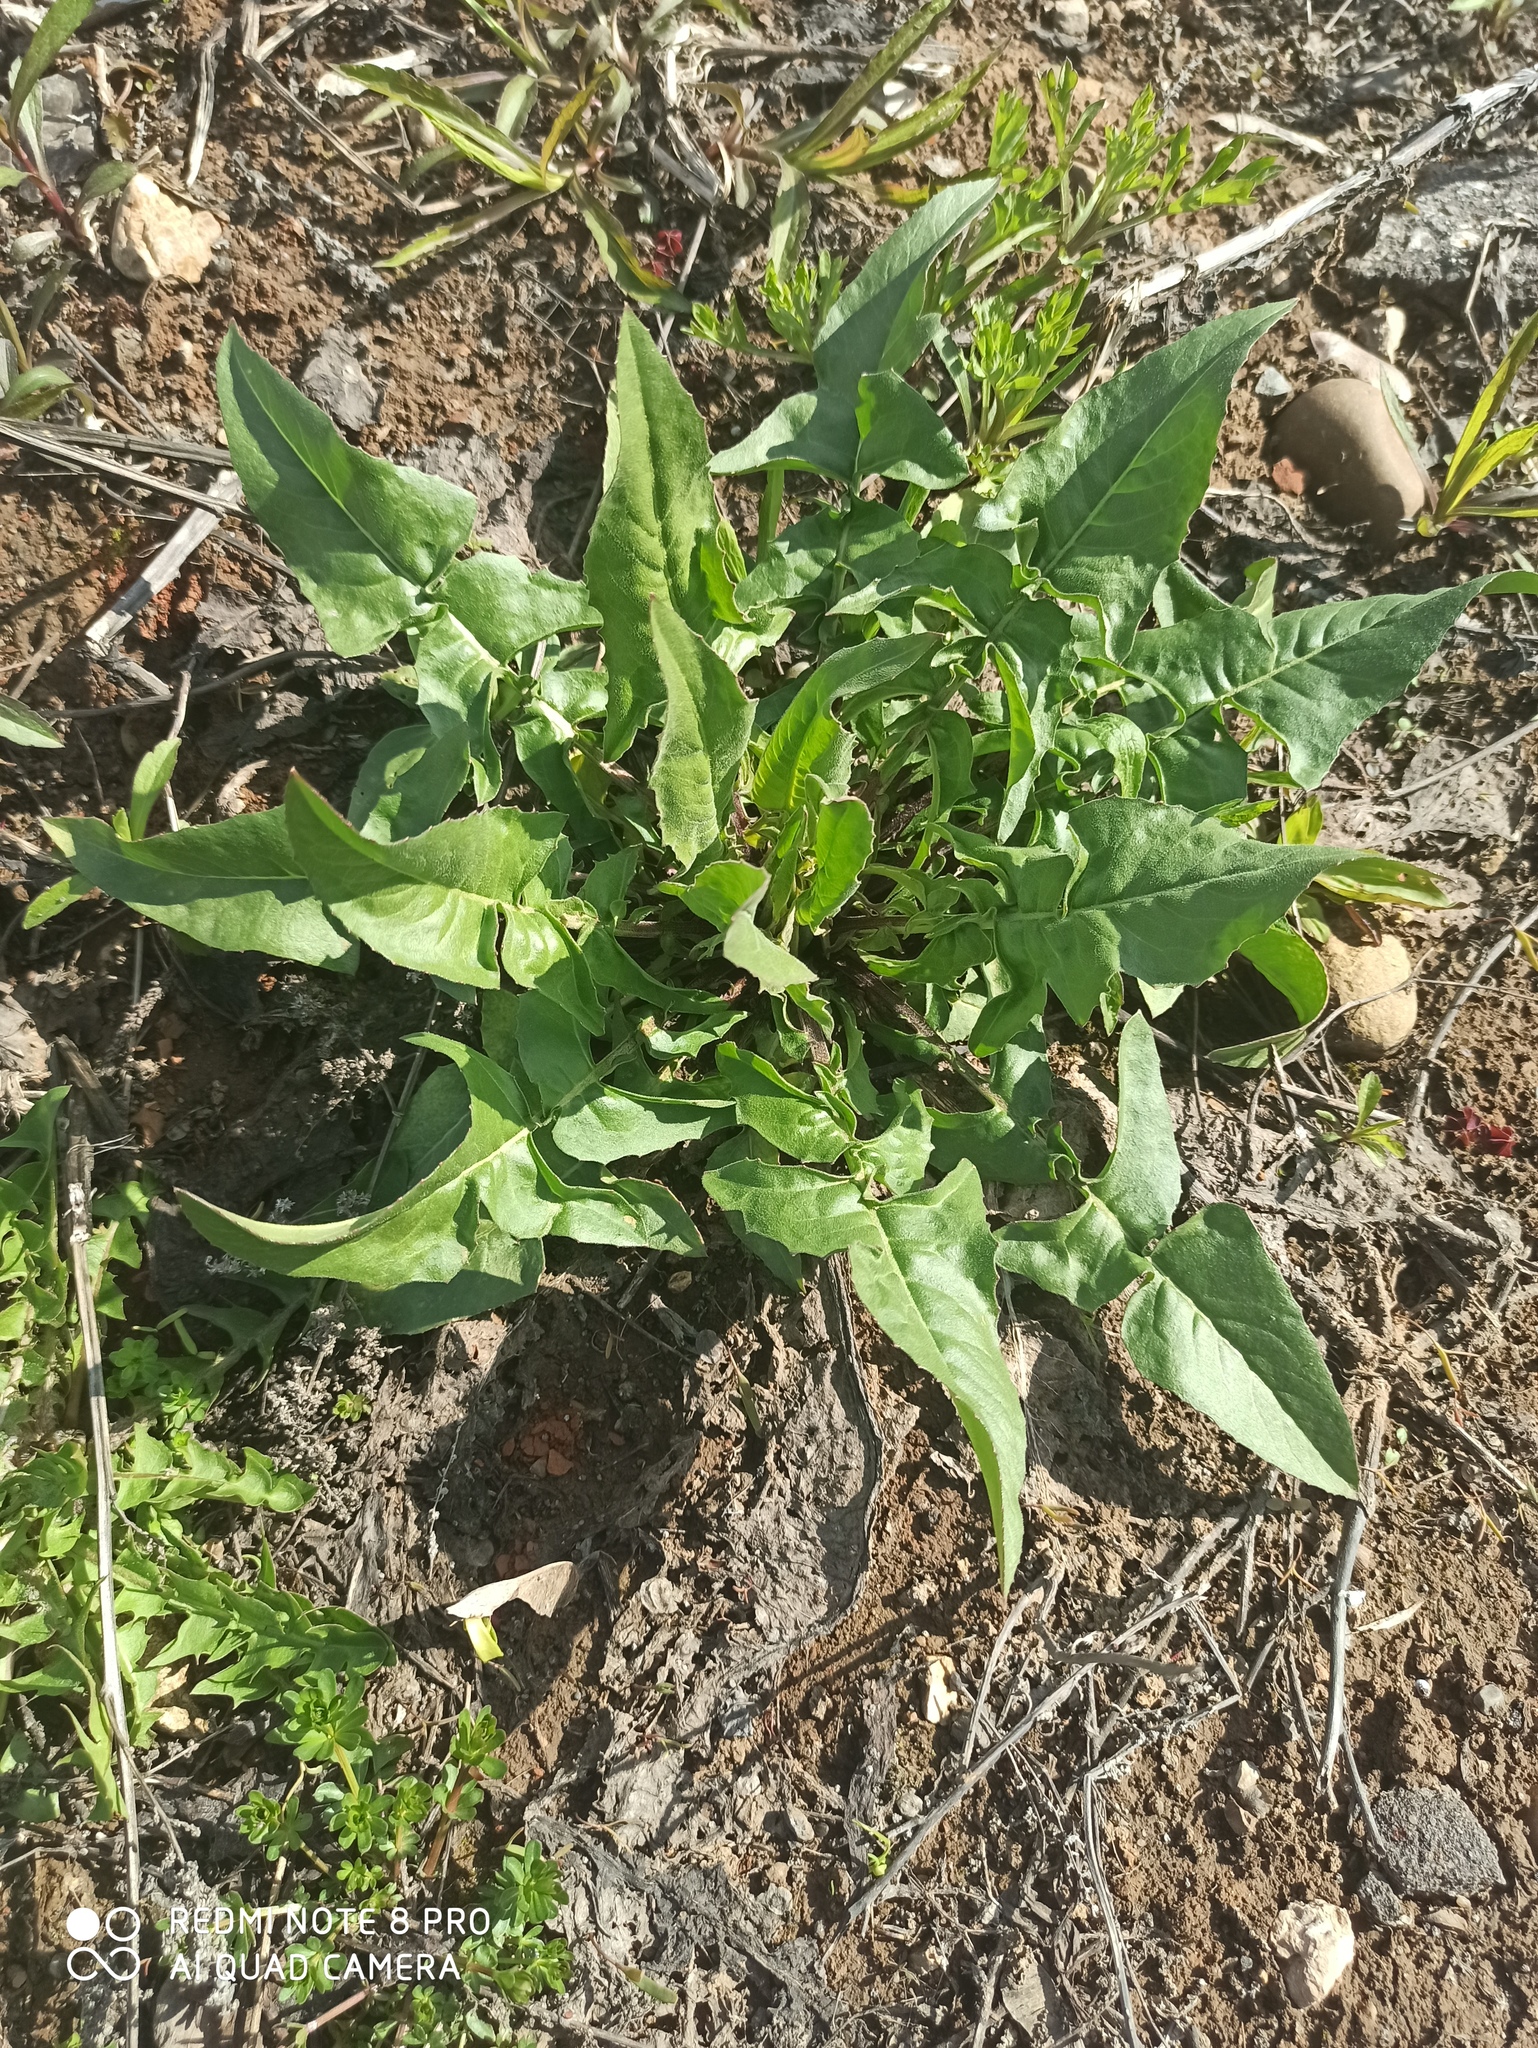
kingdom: Plantae
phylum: Tracheophyta
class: Magnoliopsida
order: Brassicales
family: Brassicaceae
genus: Bunias
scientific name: Bunias orientalis
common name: Warty-cabbage
